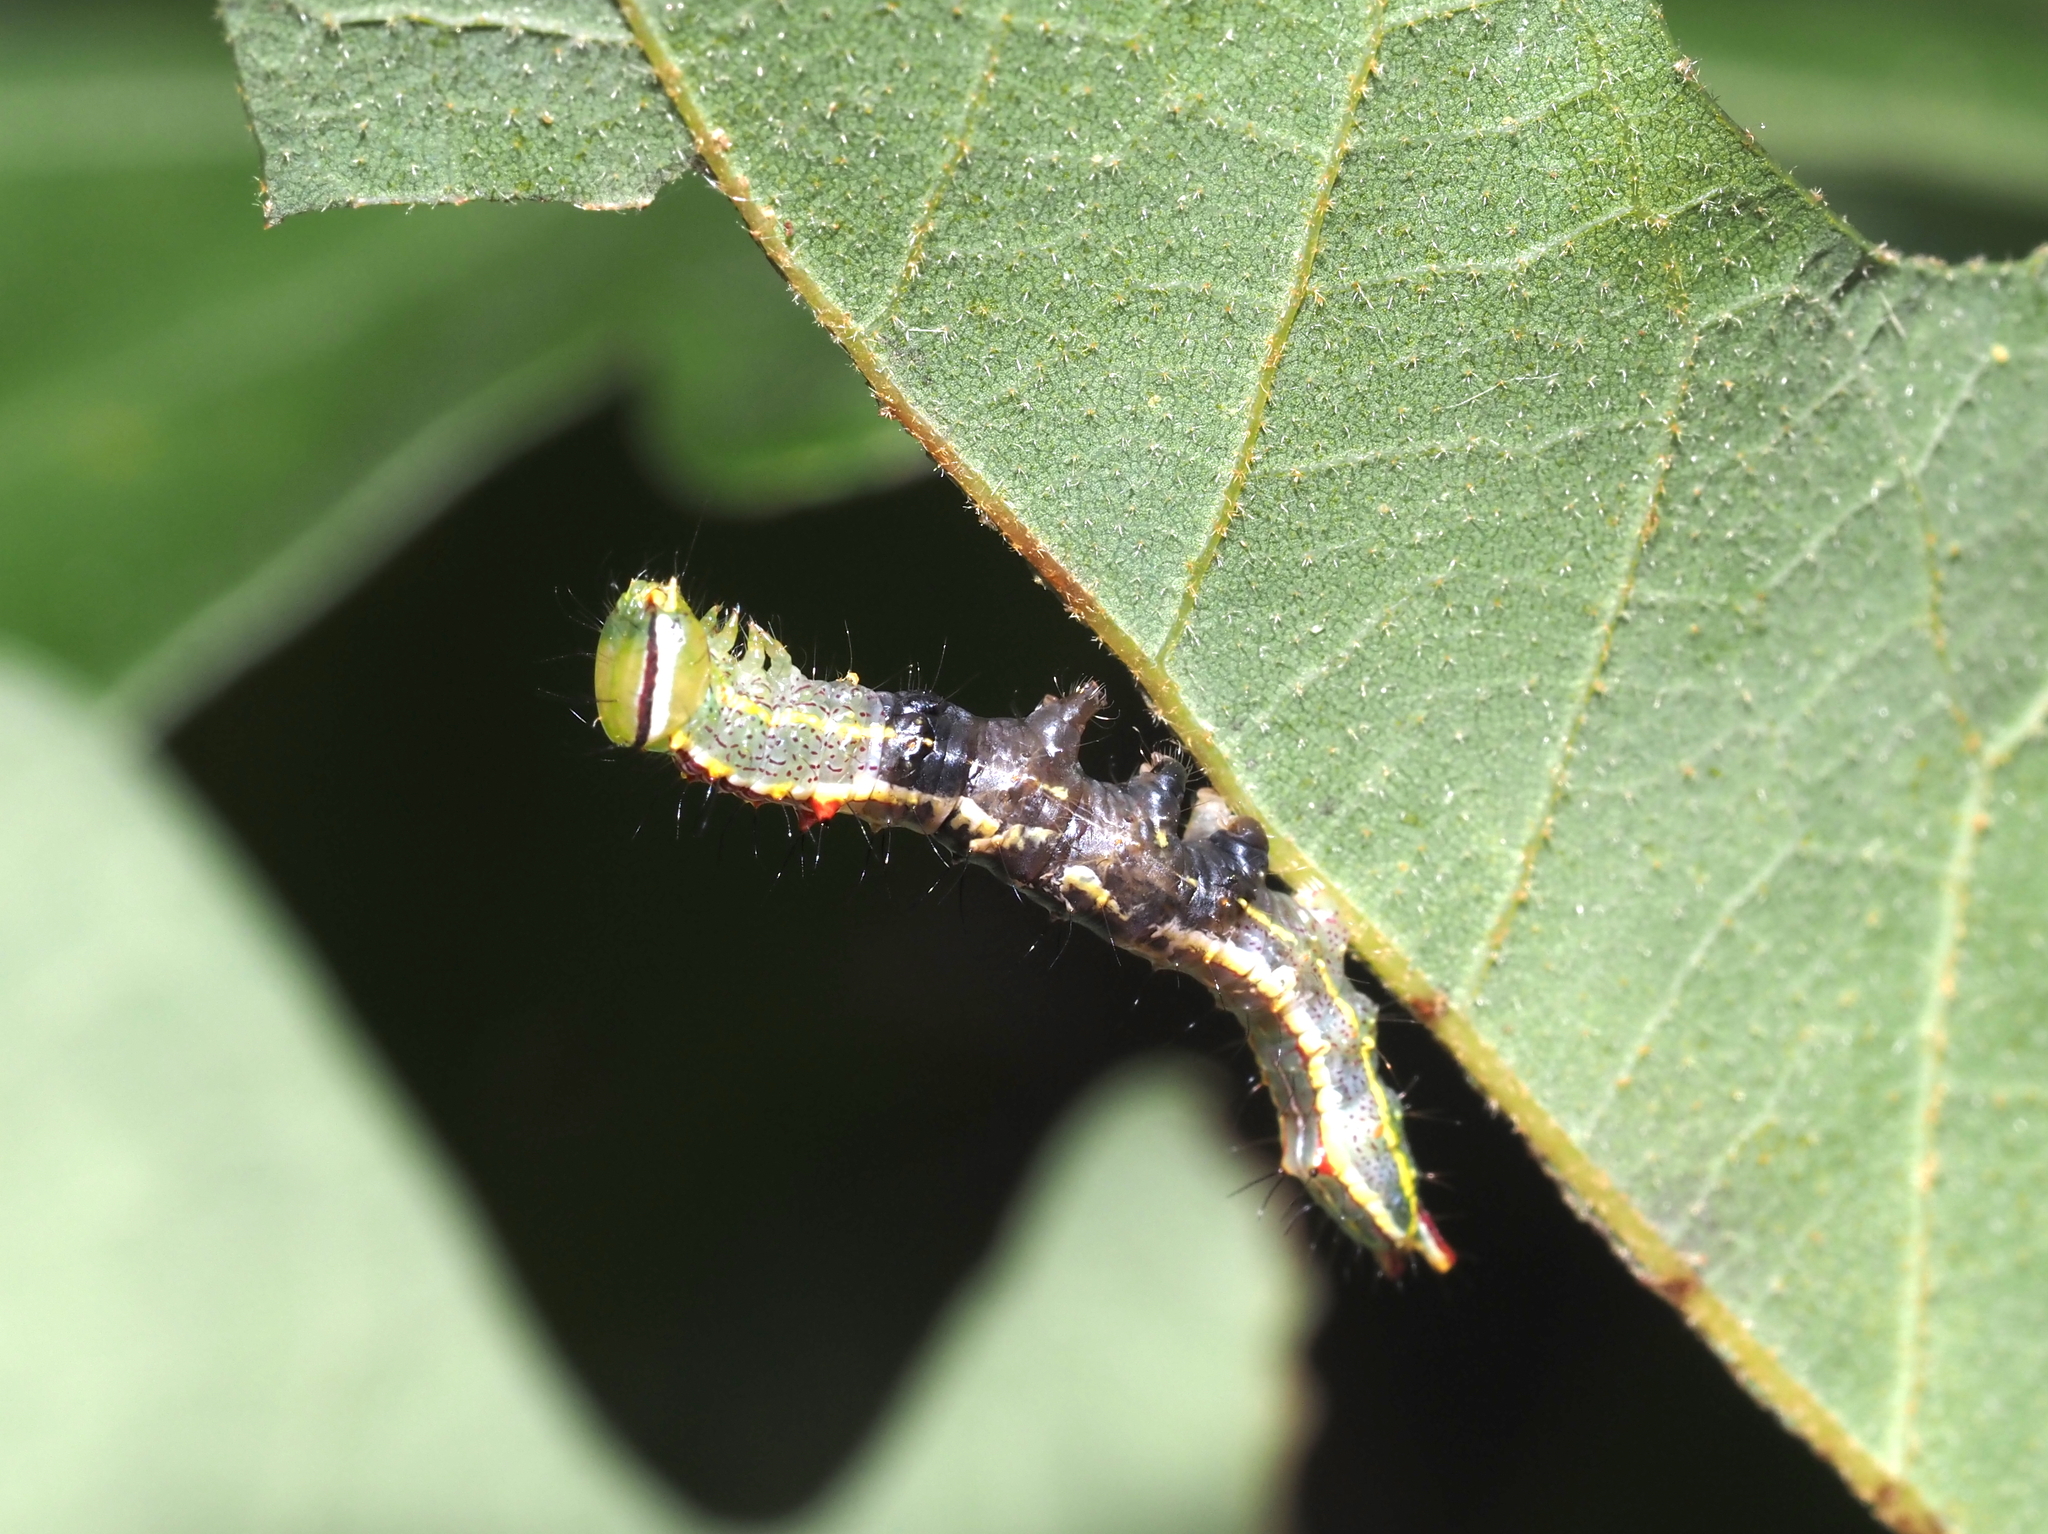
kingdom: Animalia
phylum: Arthropoda
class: Insecta
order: Lepidoptera
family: Notodontidae
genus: Lochmaeus
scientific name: Lochmaeus manteo
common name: Variable oakleaf caterpillar moth
